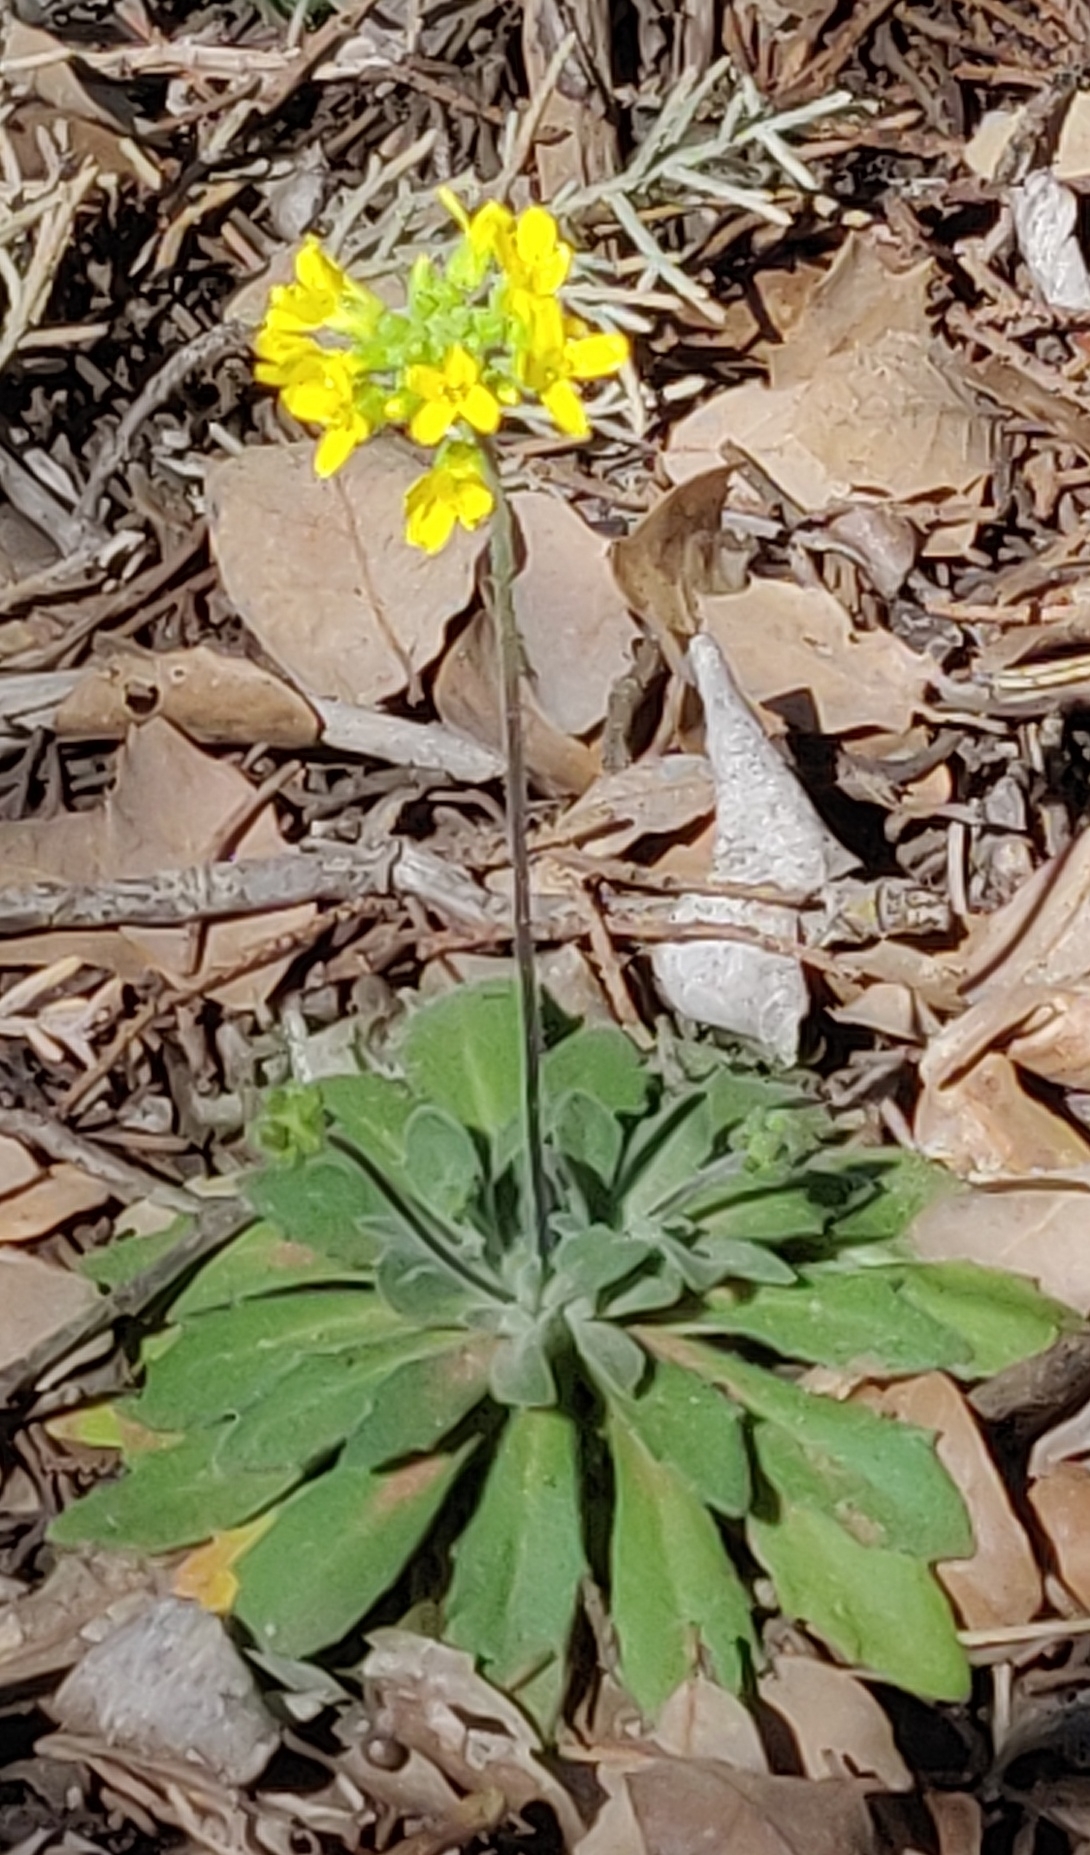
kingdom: Plantae
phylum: Tracheophyta
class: Magnoliopsida
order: Brassicales
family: Brassicaceae
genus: Draba
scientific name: Draba asprella
